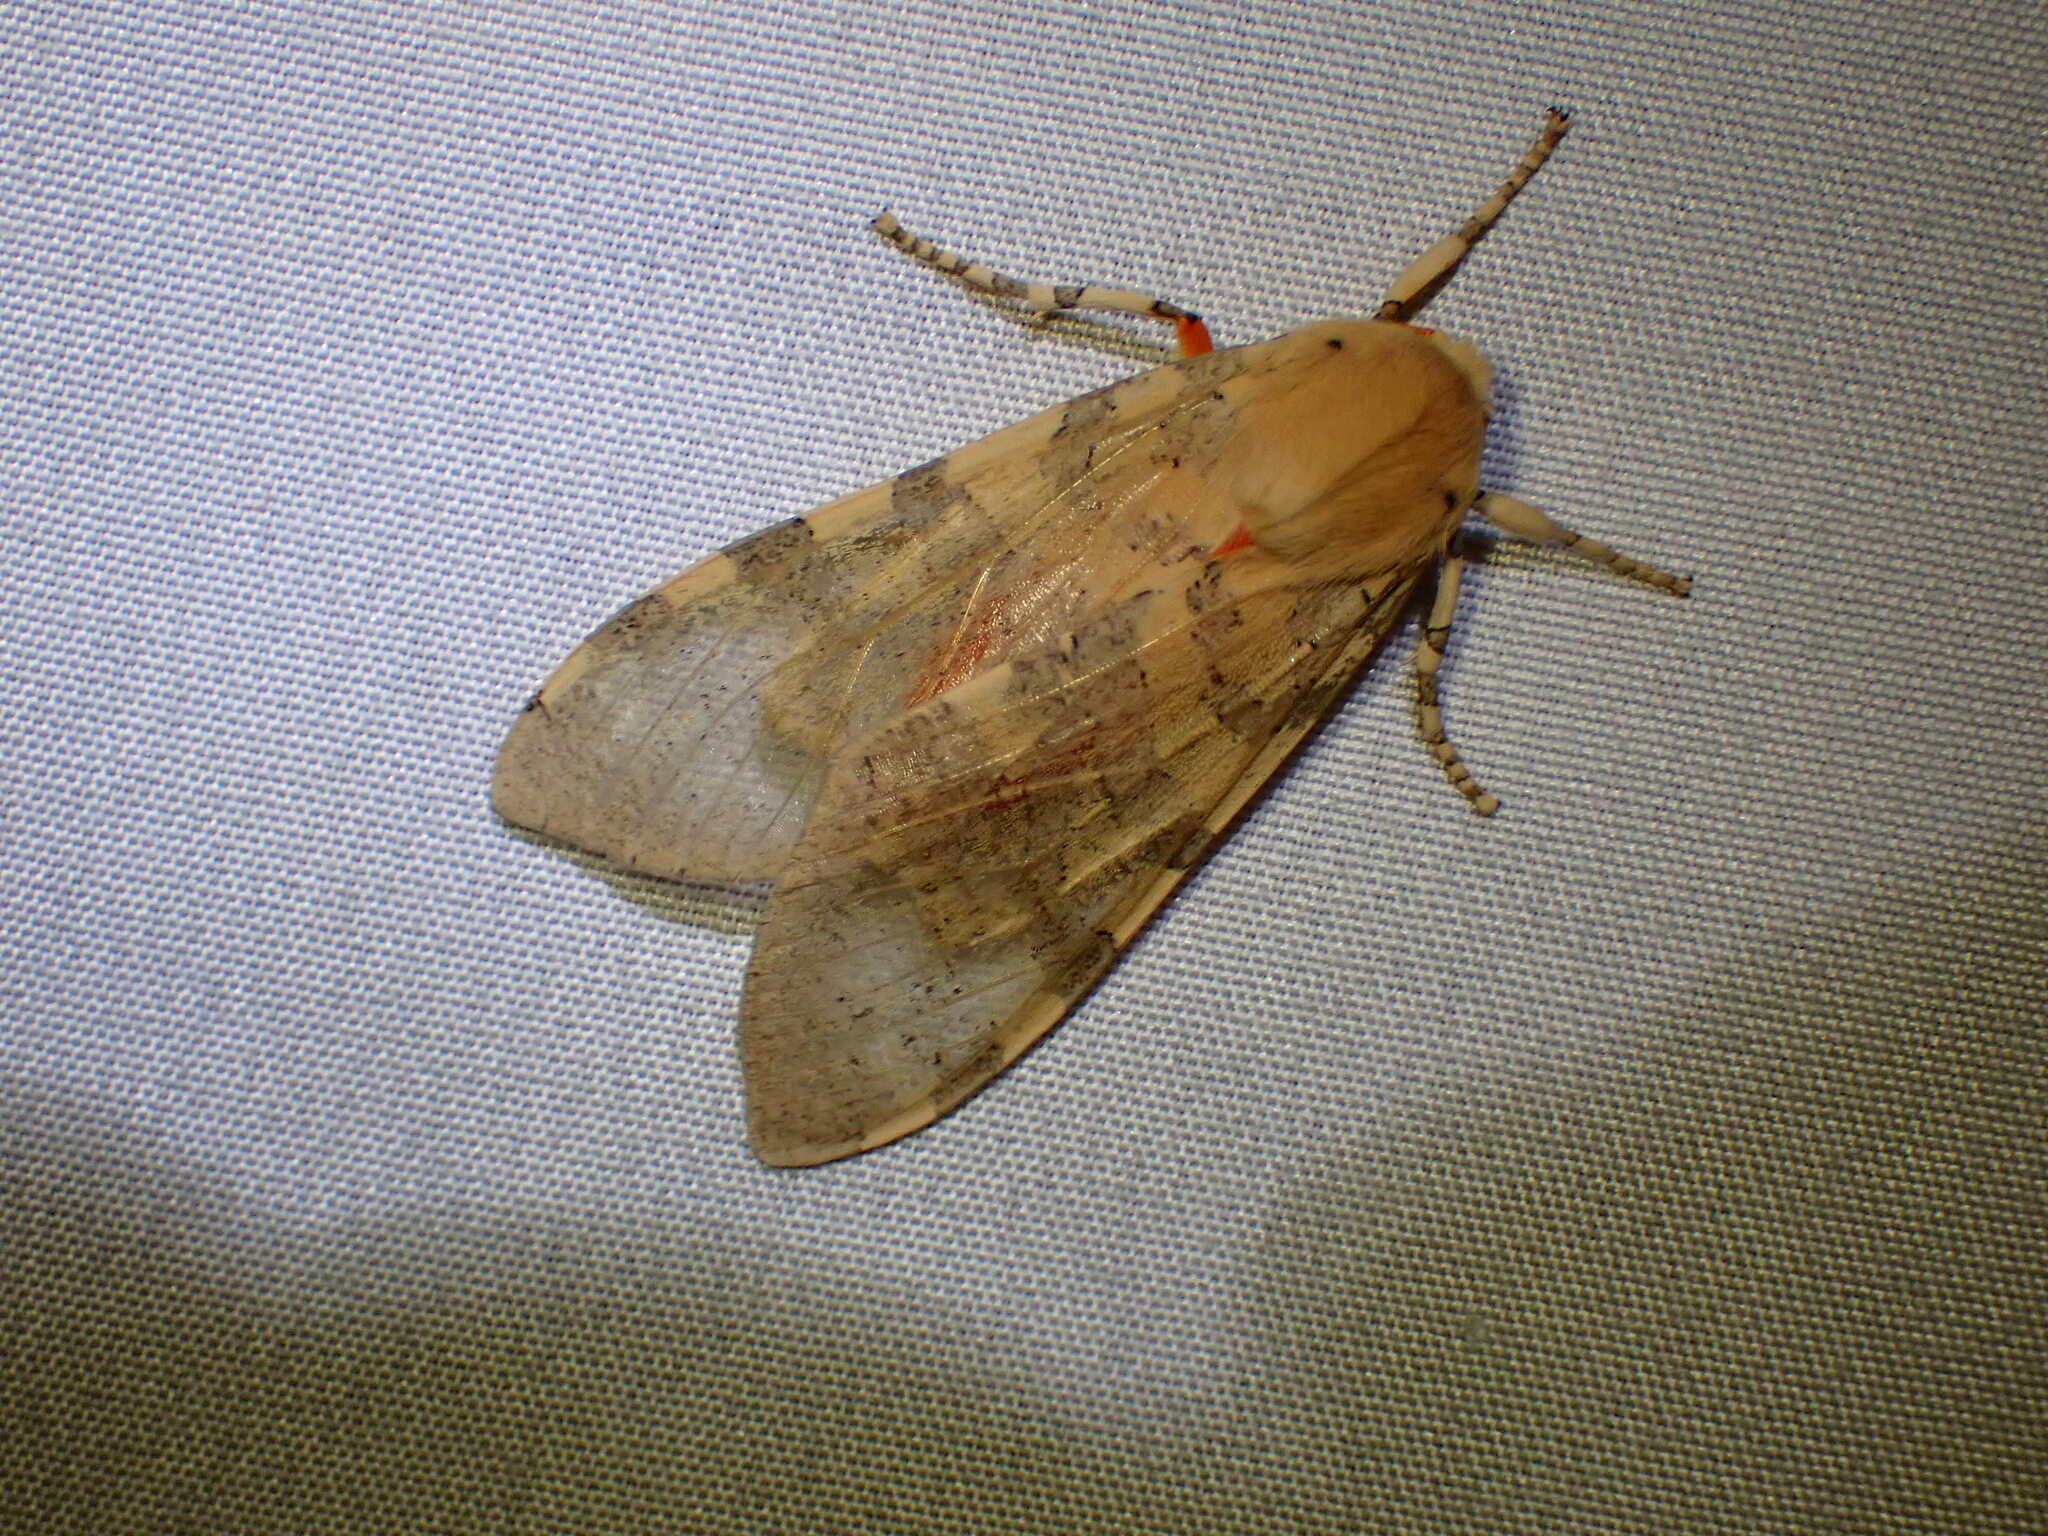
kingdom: Animalia
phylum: Arthropoda
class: Insecta
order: Lepidoptera
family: Erebidae
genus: Hemihyalea
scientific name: Hemihyalea edwardsii
